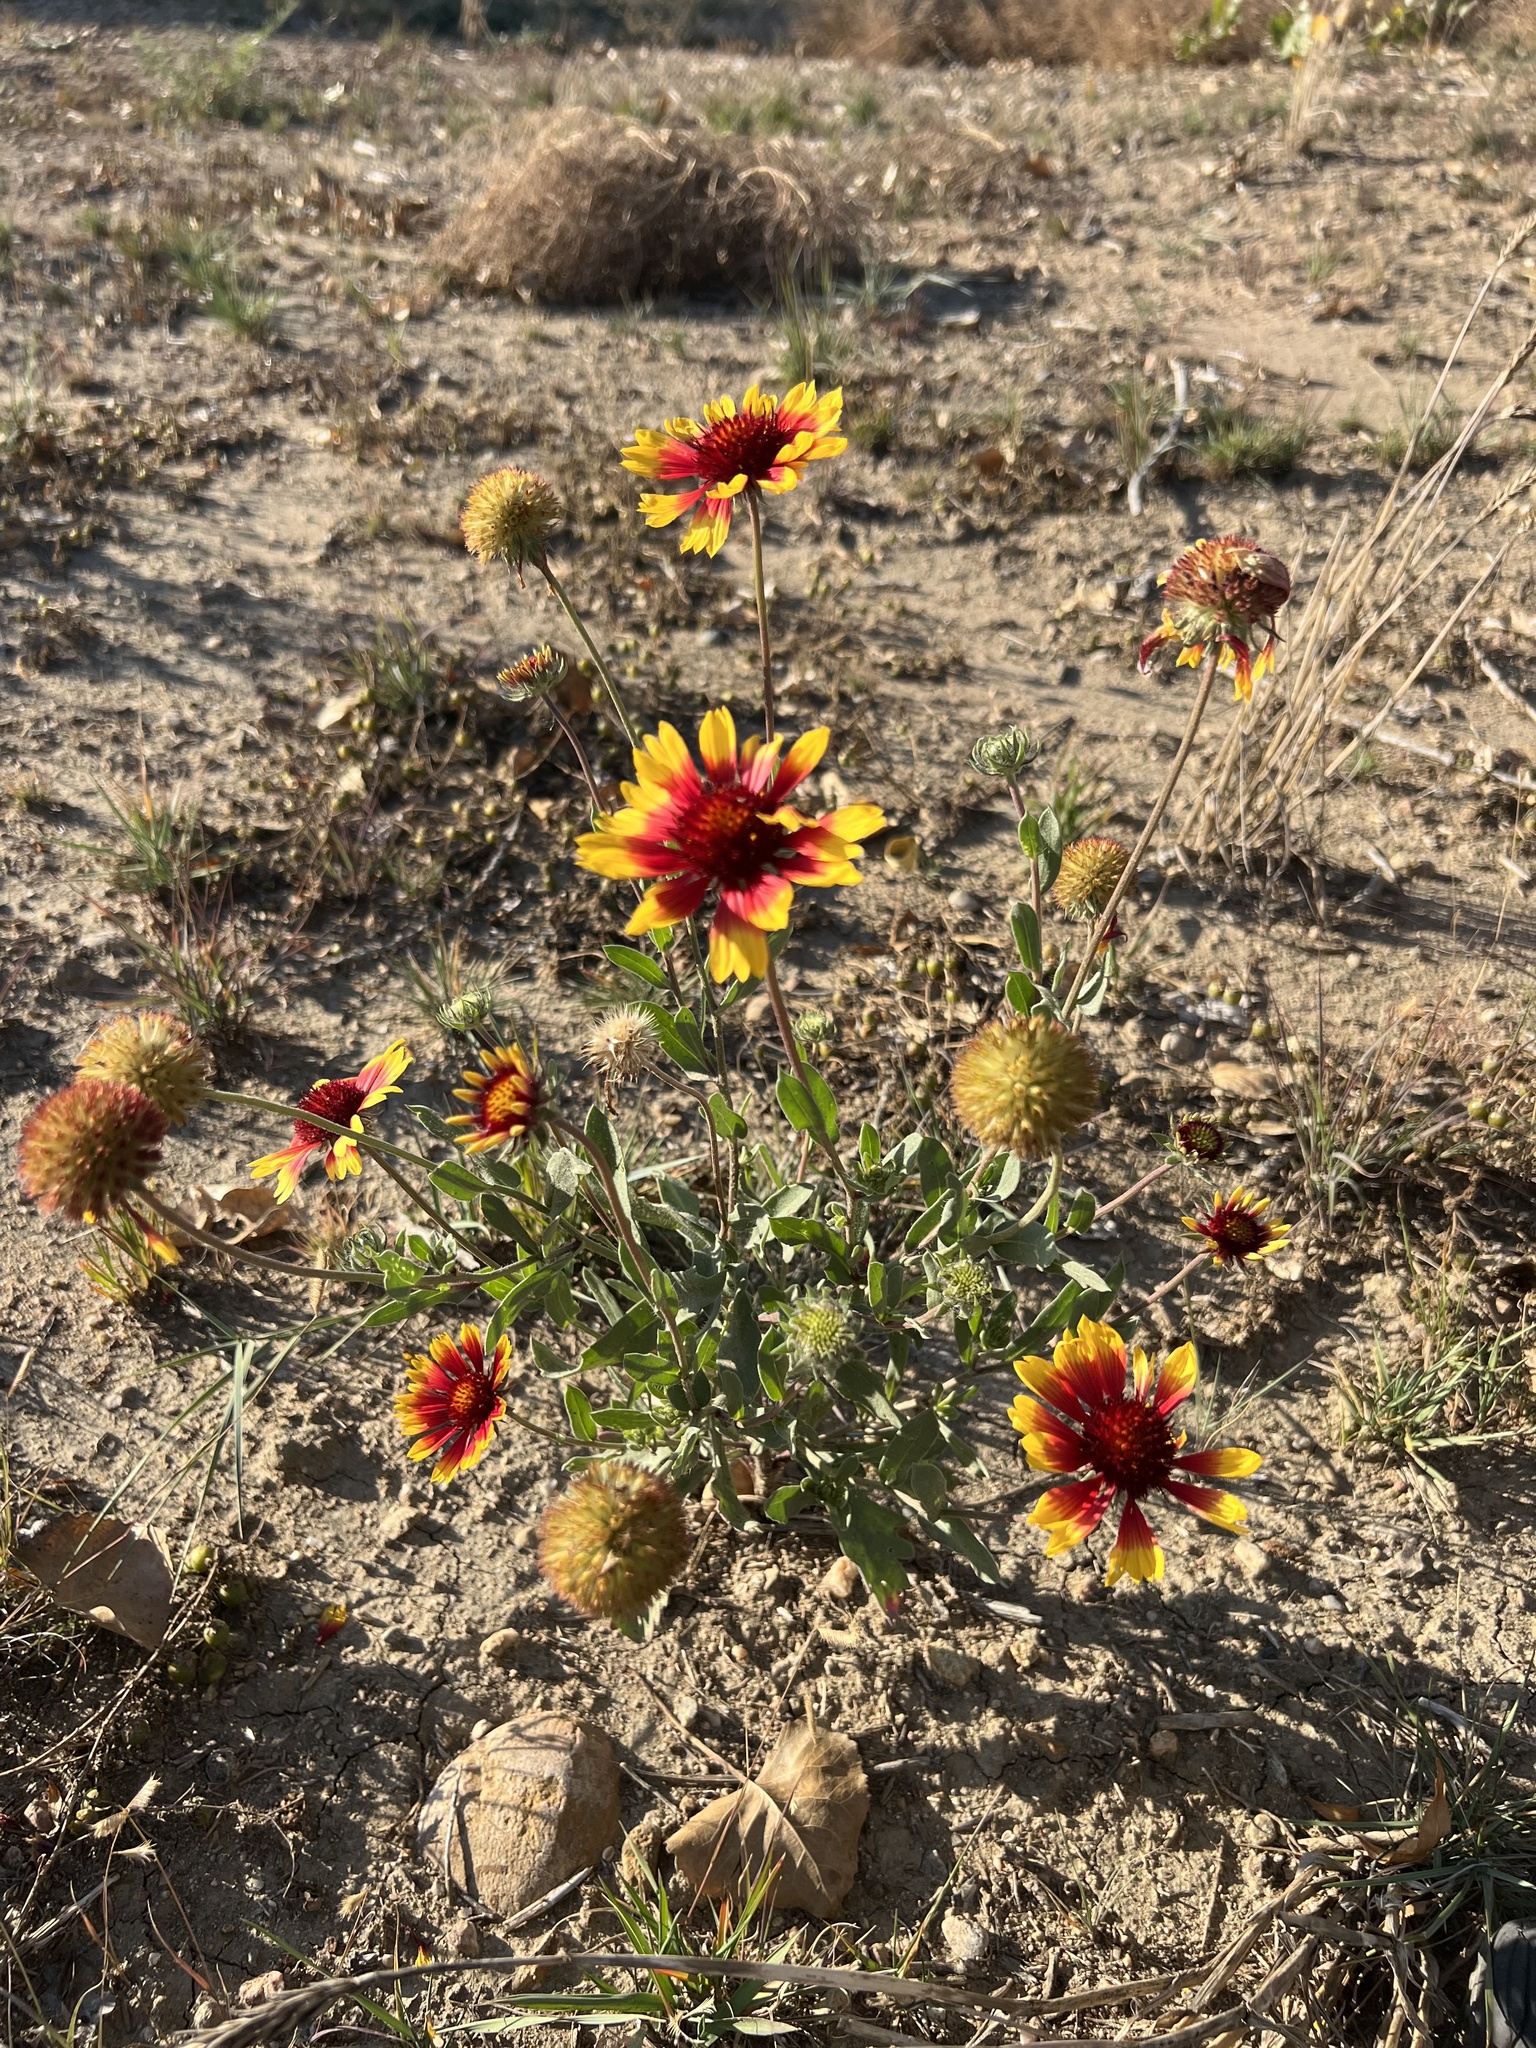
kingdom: Plantae
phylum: Tracheophyta
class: Magnoliopsida
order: Asterales
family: Asteraceae
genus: Gaillardia
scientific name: Gaillardia pulchella
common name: Firewheel
